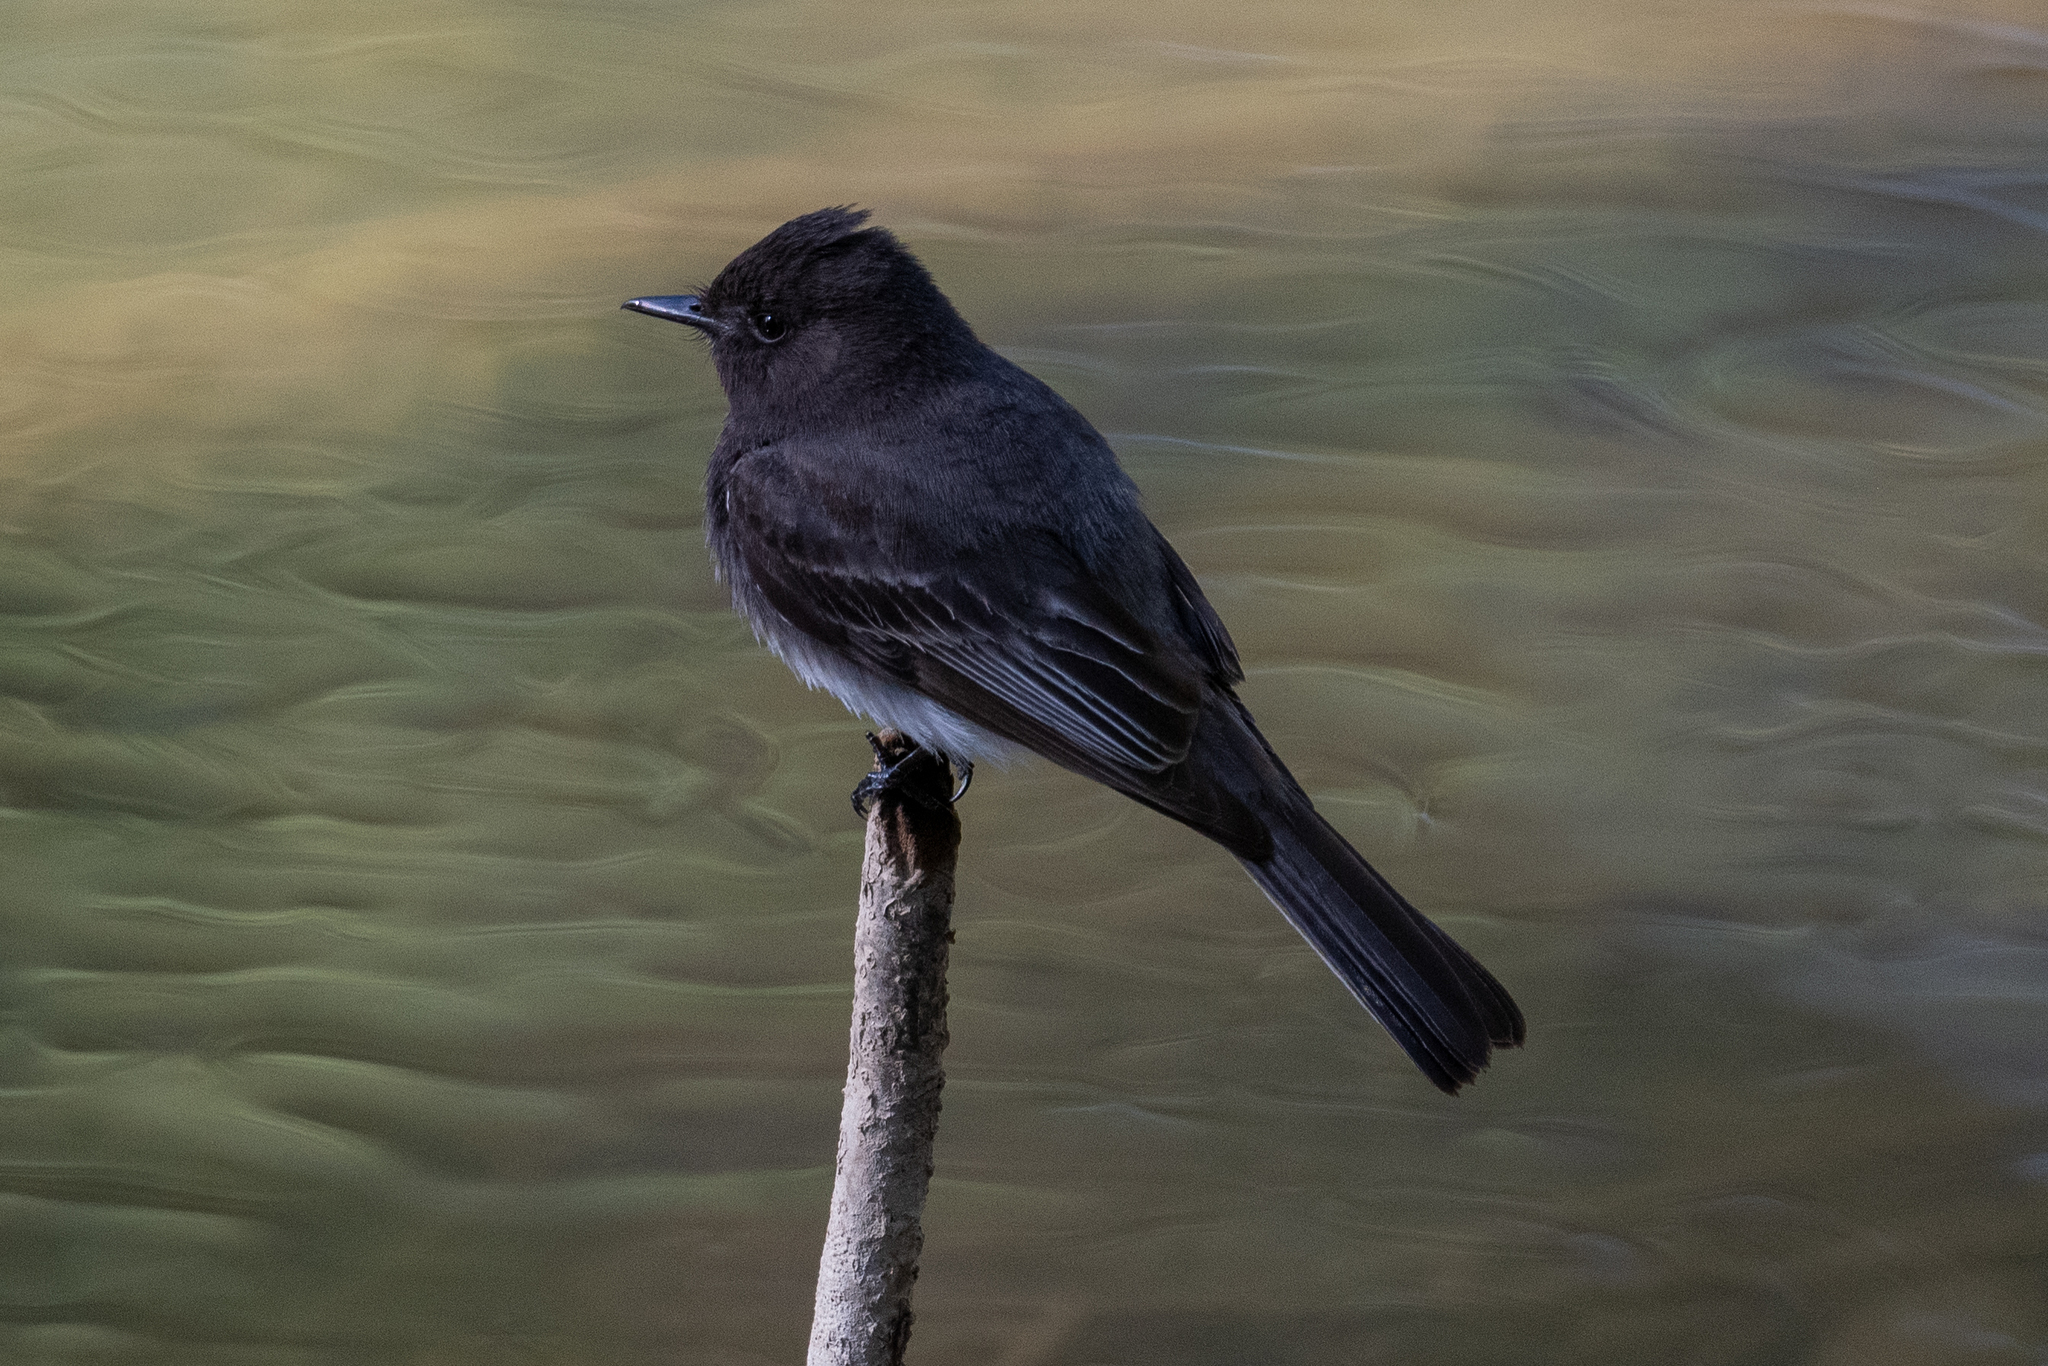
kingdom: Animalia
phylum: Chordata
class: Aves
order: Passeriformes
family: Tyrannidae
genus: Sayornis
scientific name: Sayornis nigricans
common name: Black phoebe
